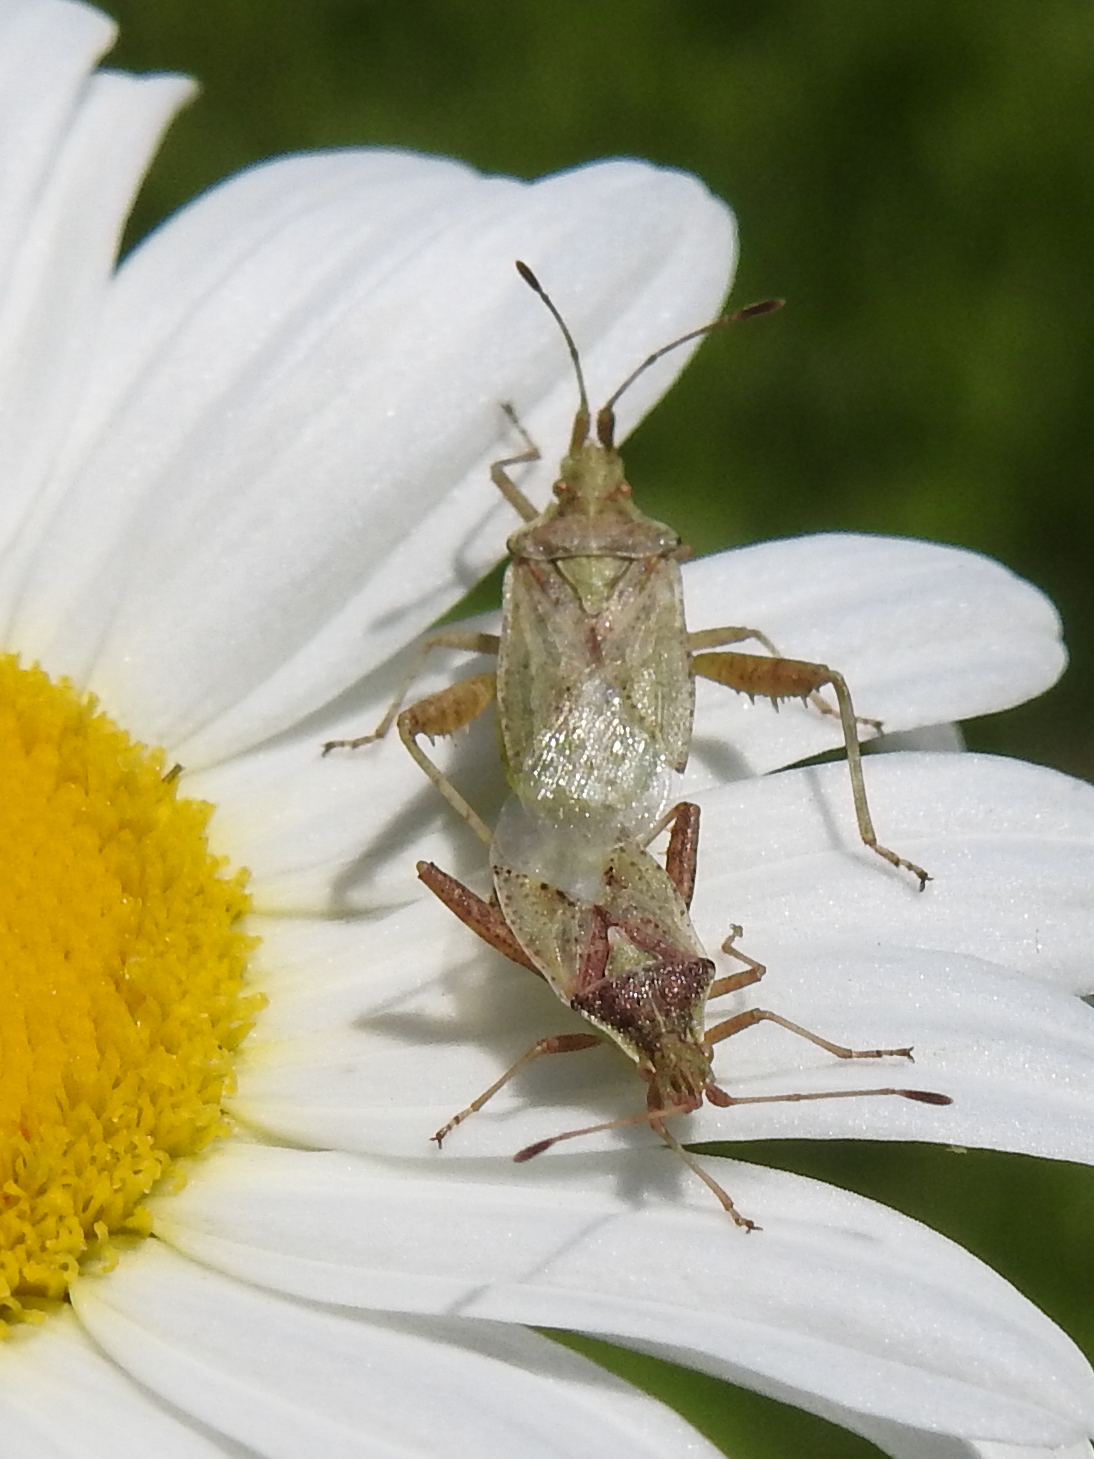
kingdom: Animalia
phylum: Arthropoda
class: Insecta
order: Hemiptera
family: Rhopalidae
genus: Harmostes
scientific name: Harmostes reflexulus
